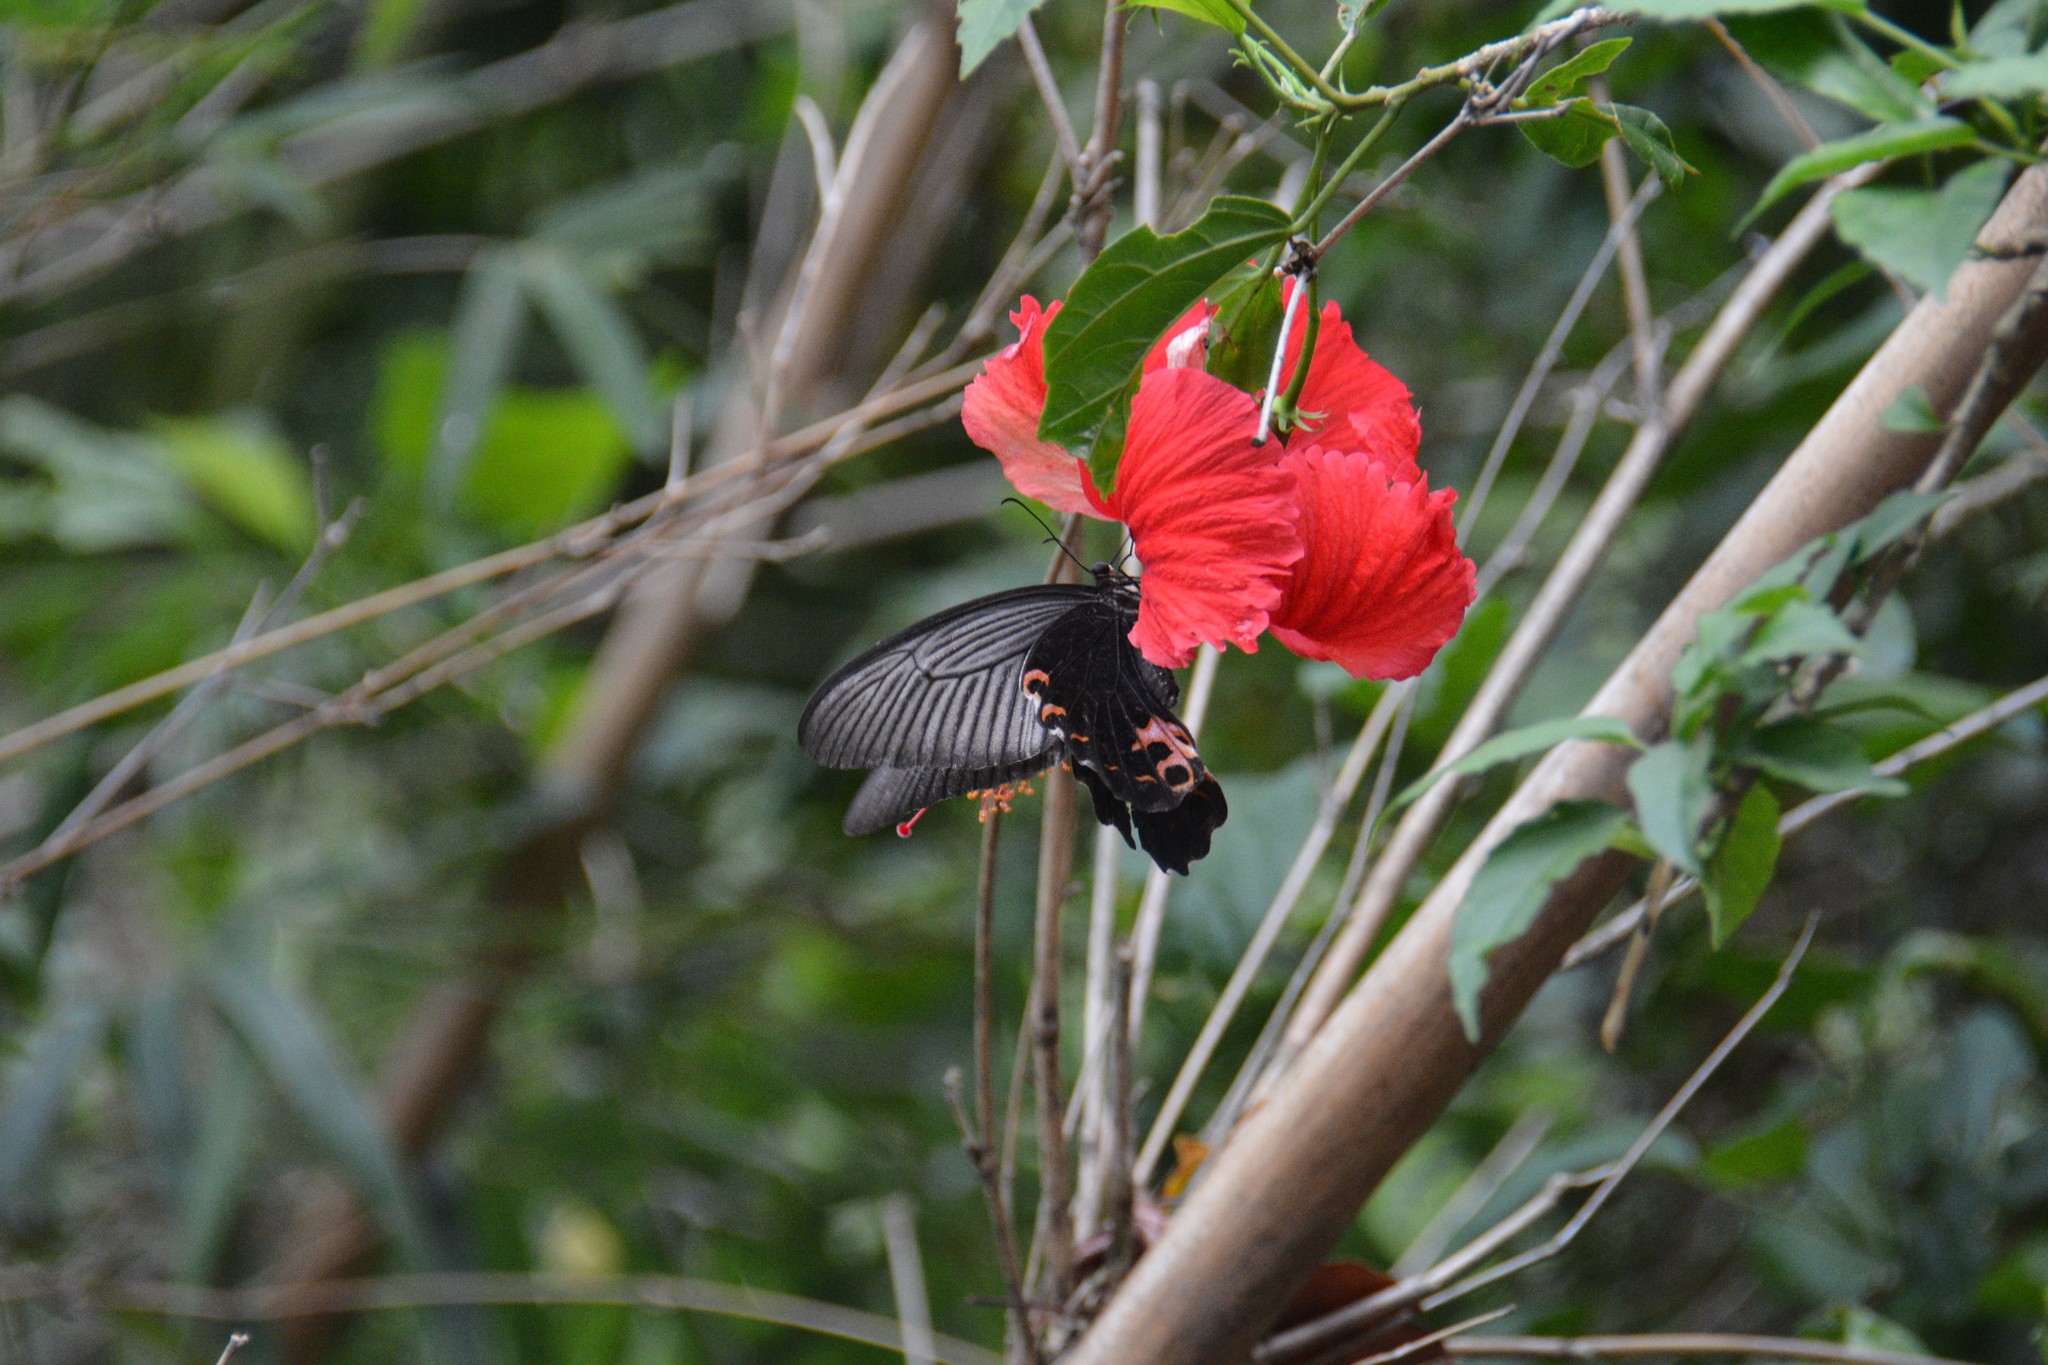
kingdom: Animalia
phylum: Arthropoda
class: Insecta
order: Lepidoptera
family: Papilionidae
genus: Papilio
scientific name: Papilio protenor
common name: Spangle
